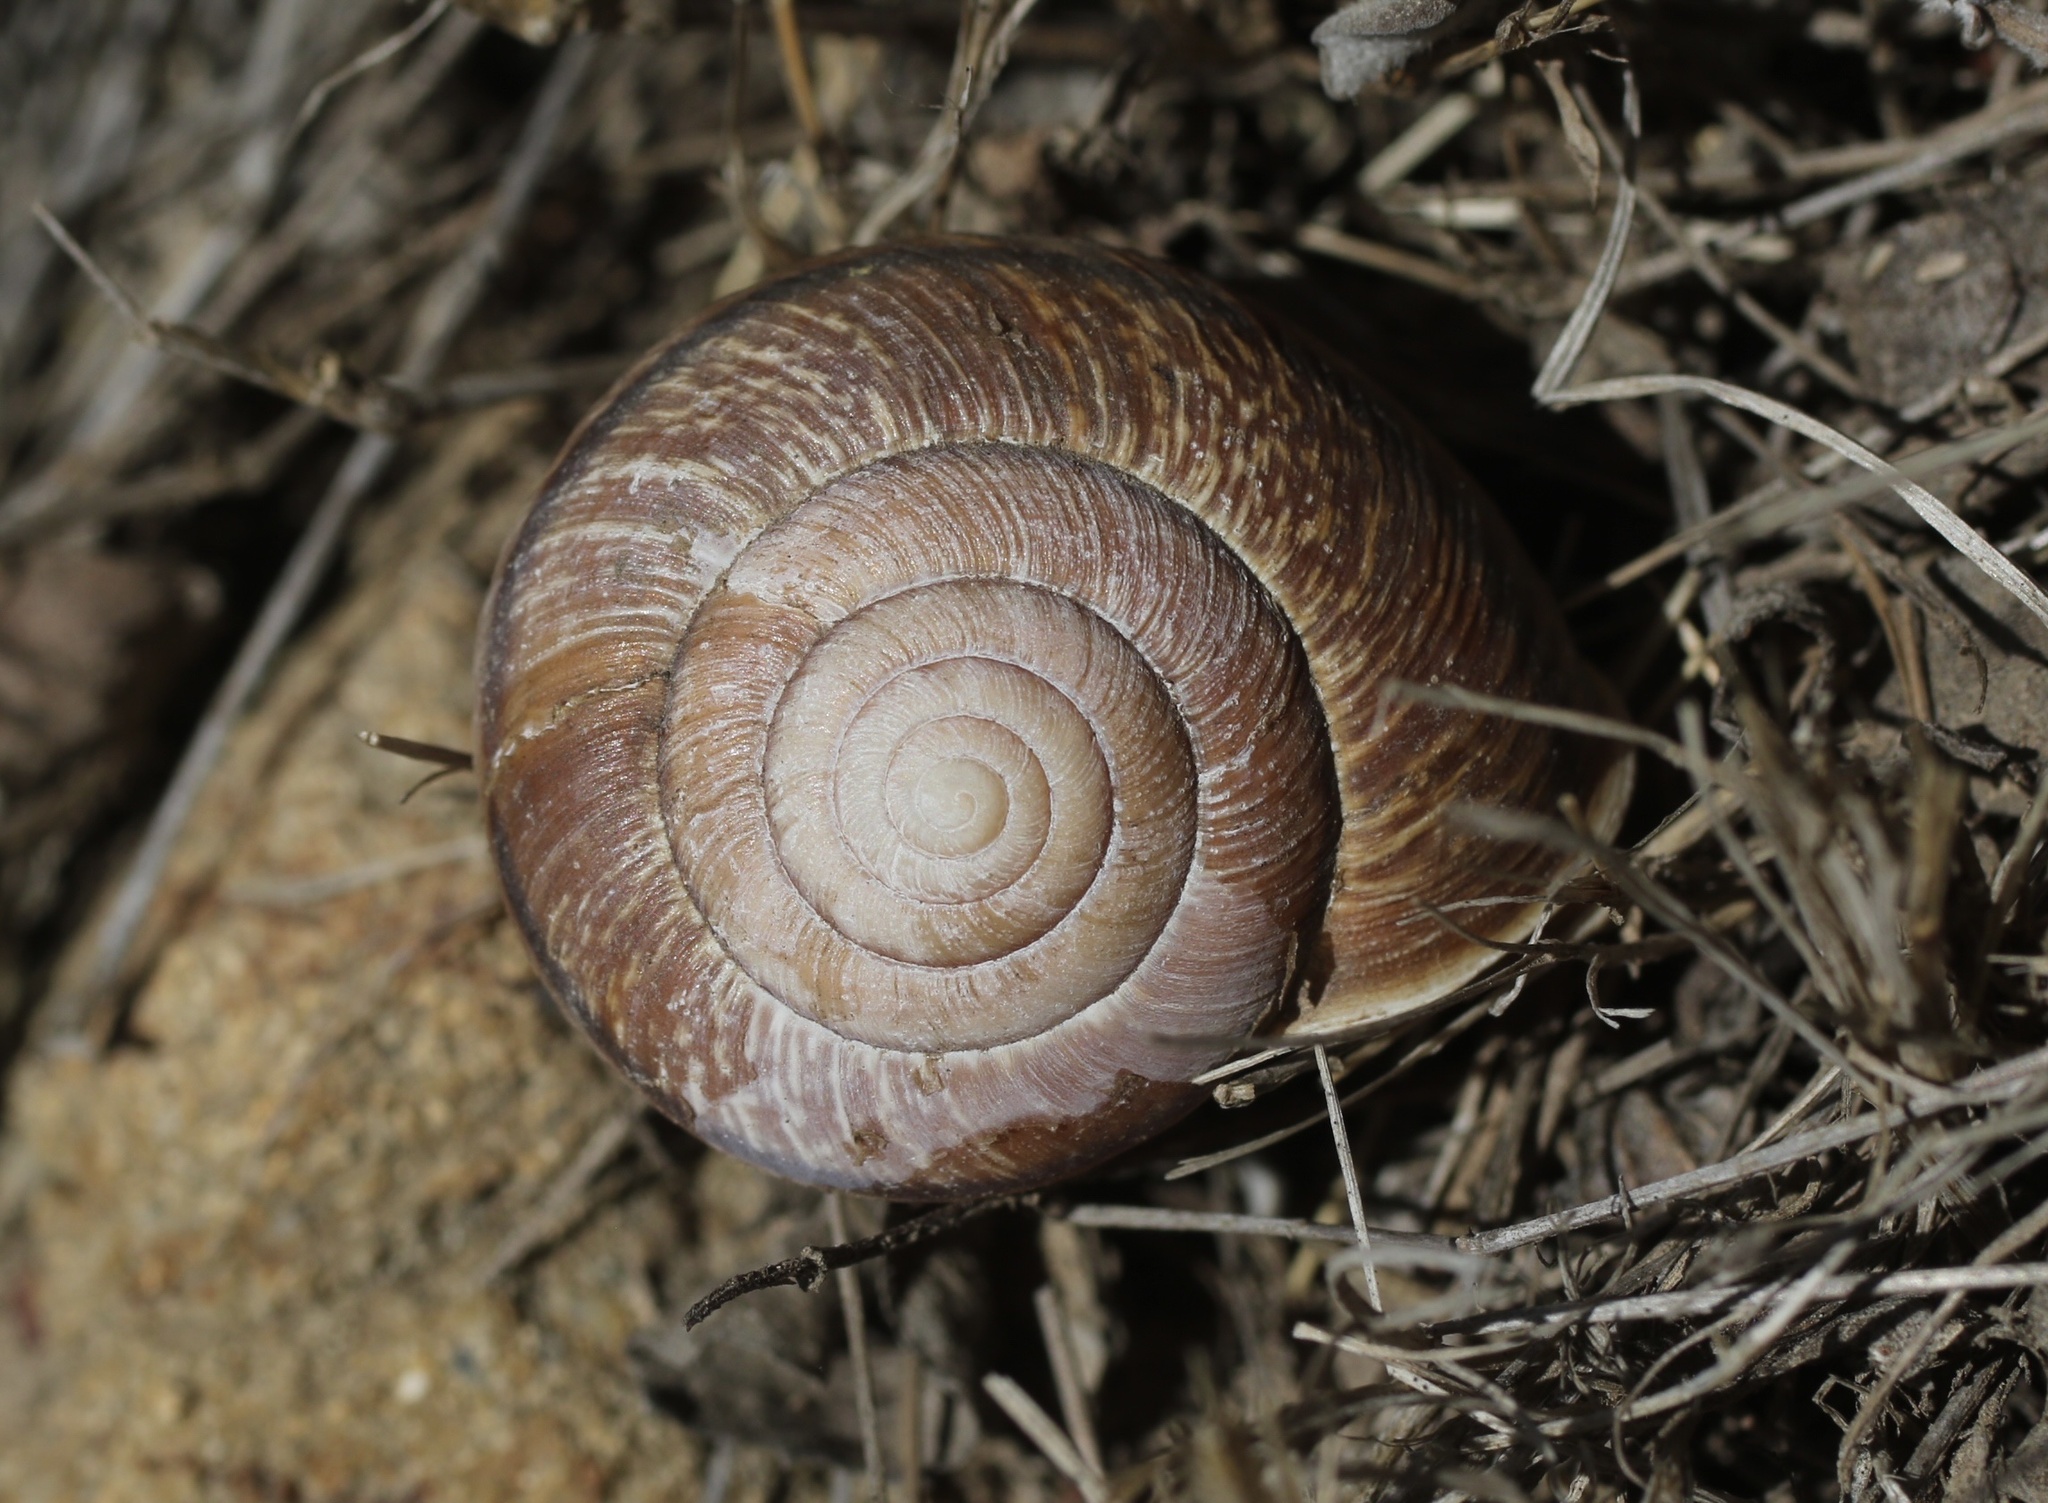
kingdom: Animalia
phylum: Mollusca
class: Gastropoda
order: Stylommatophora
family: Xanthonychidae
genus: Helminthoglypta
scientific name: Helminthoglypta arrosa
